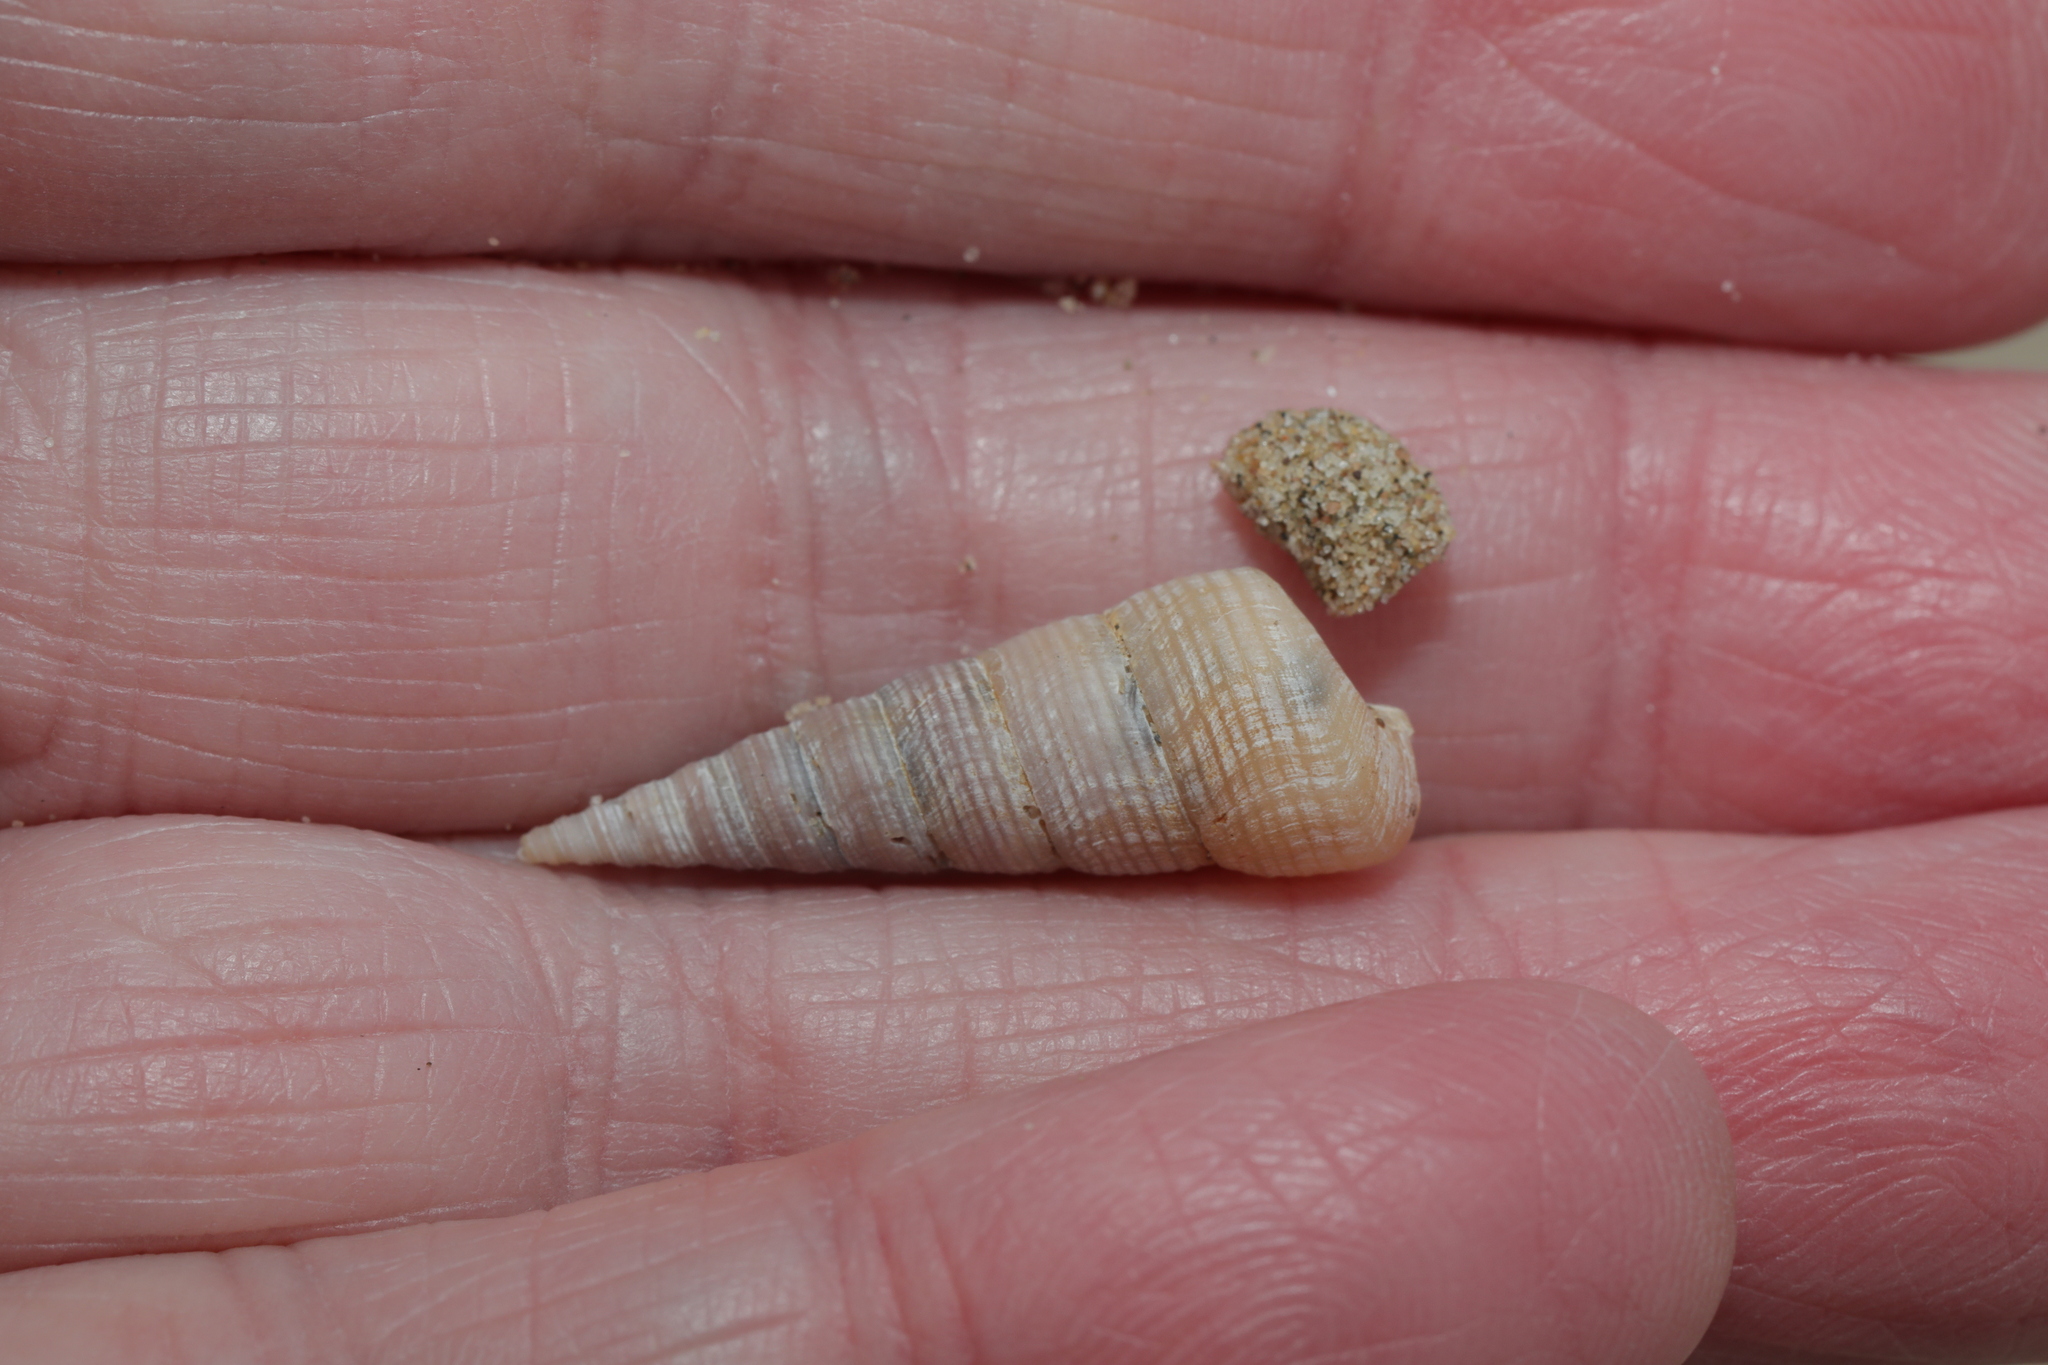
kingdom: Animalia
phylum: Mollusca
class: Gastropoda
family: Turritellidae
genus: Turritellinella
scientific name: Turritellinella tricarinata
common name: Auger shell
